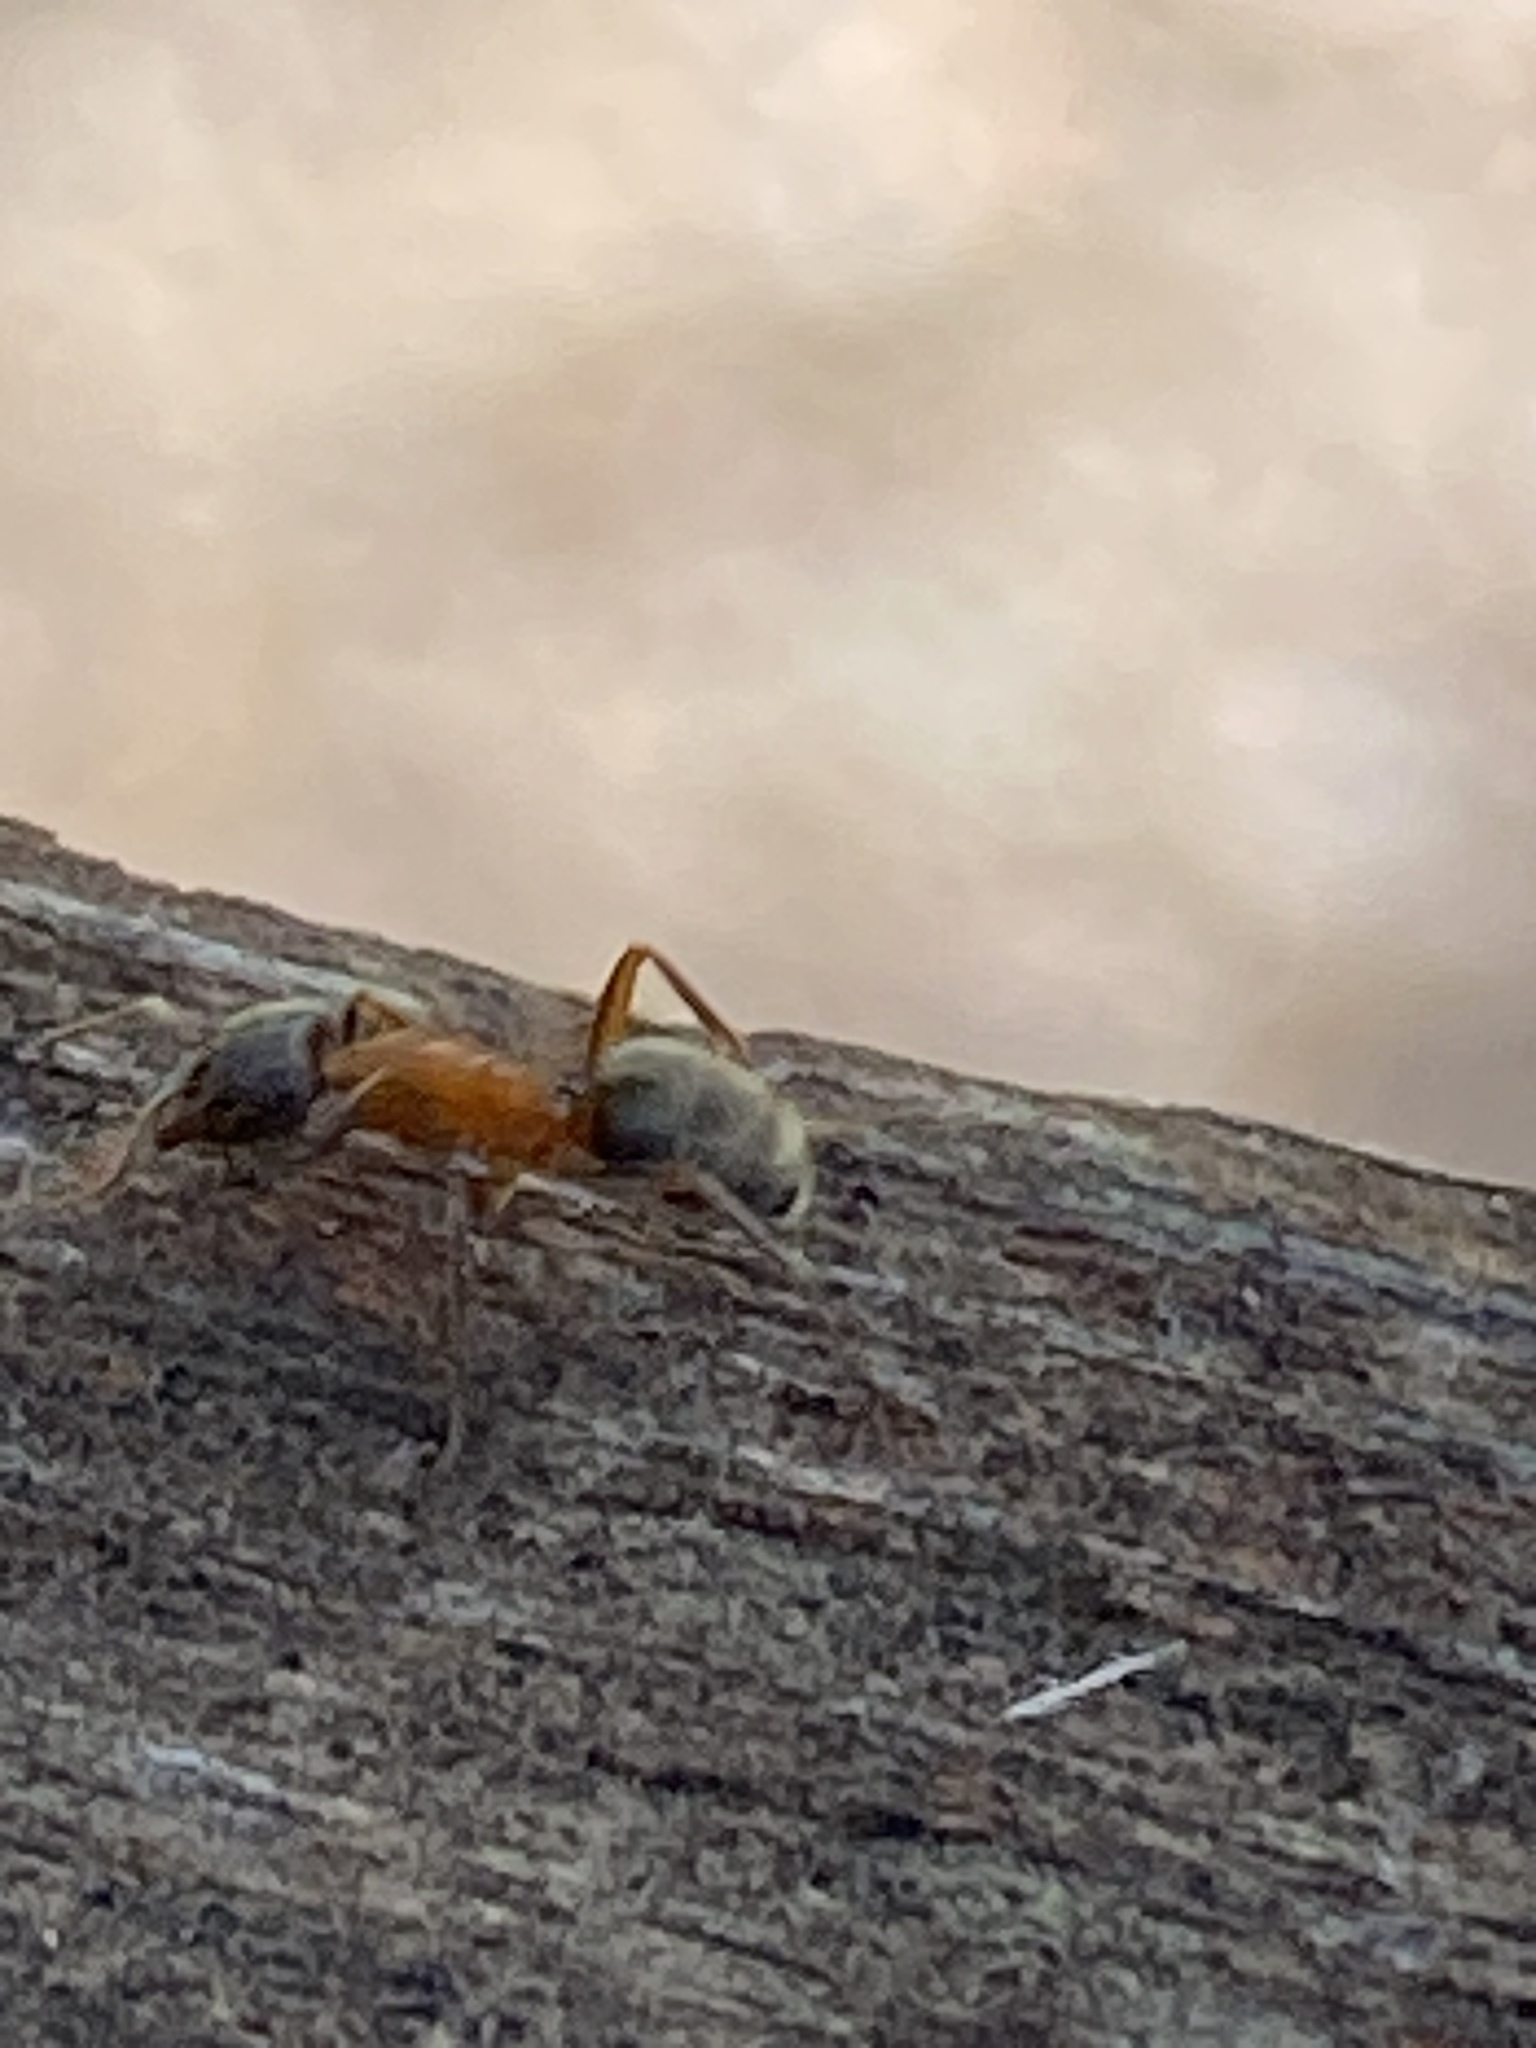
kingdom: Animalia
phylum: Arthropoda
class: Insecta
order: Hymenoptera
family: Formicidae
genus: Liometopum
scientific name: Liometopum occidentale
